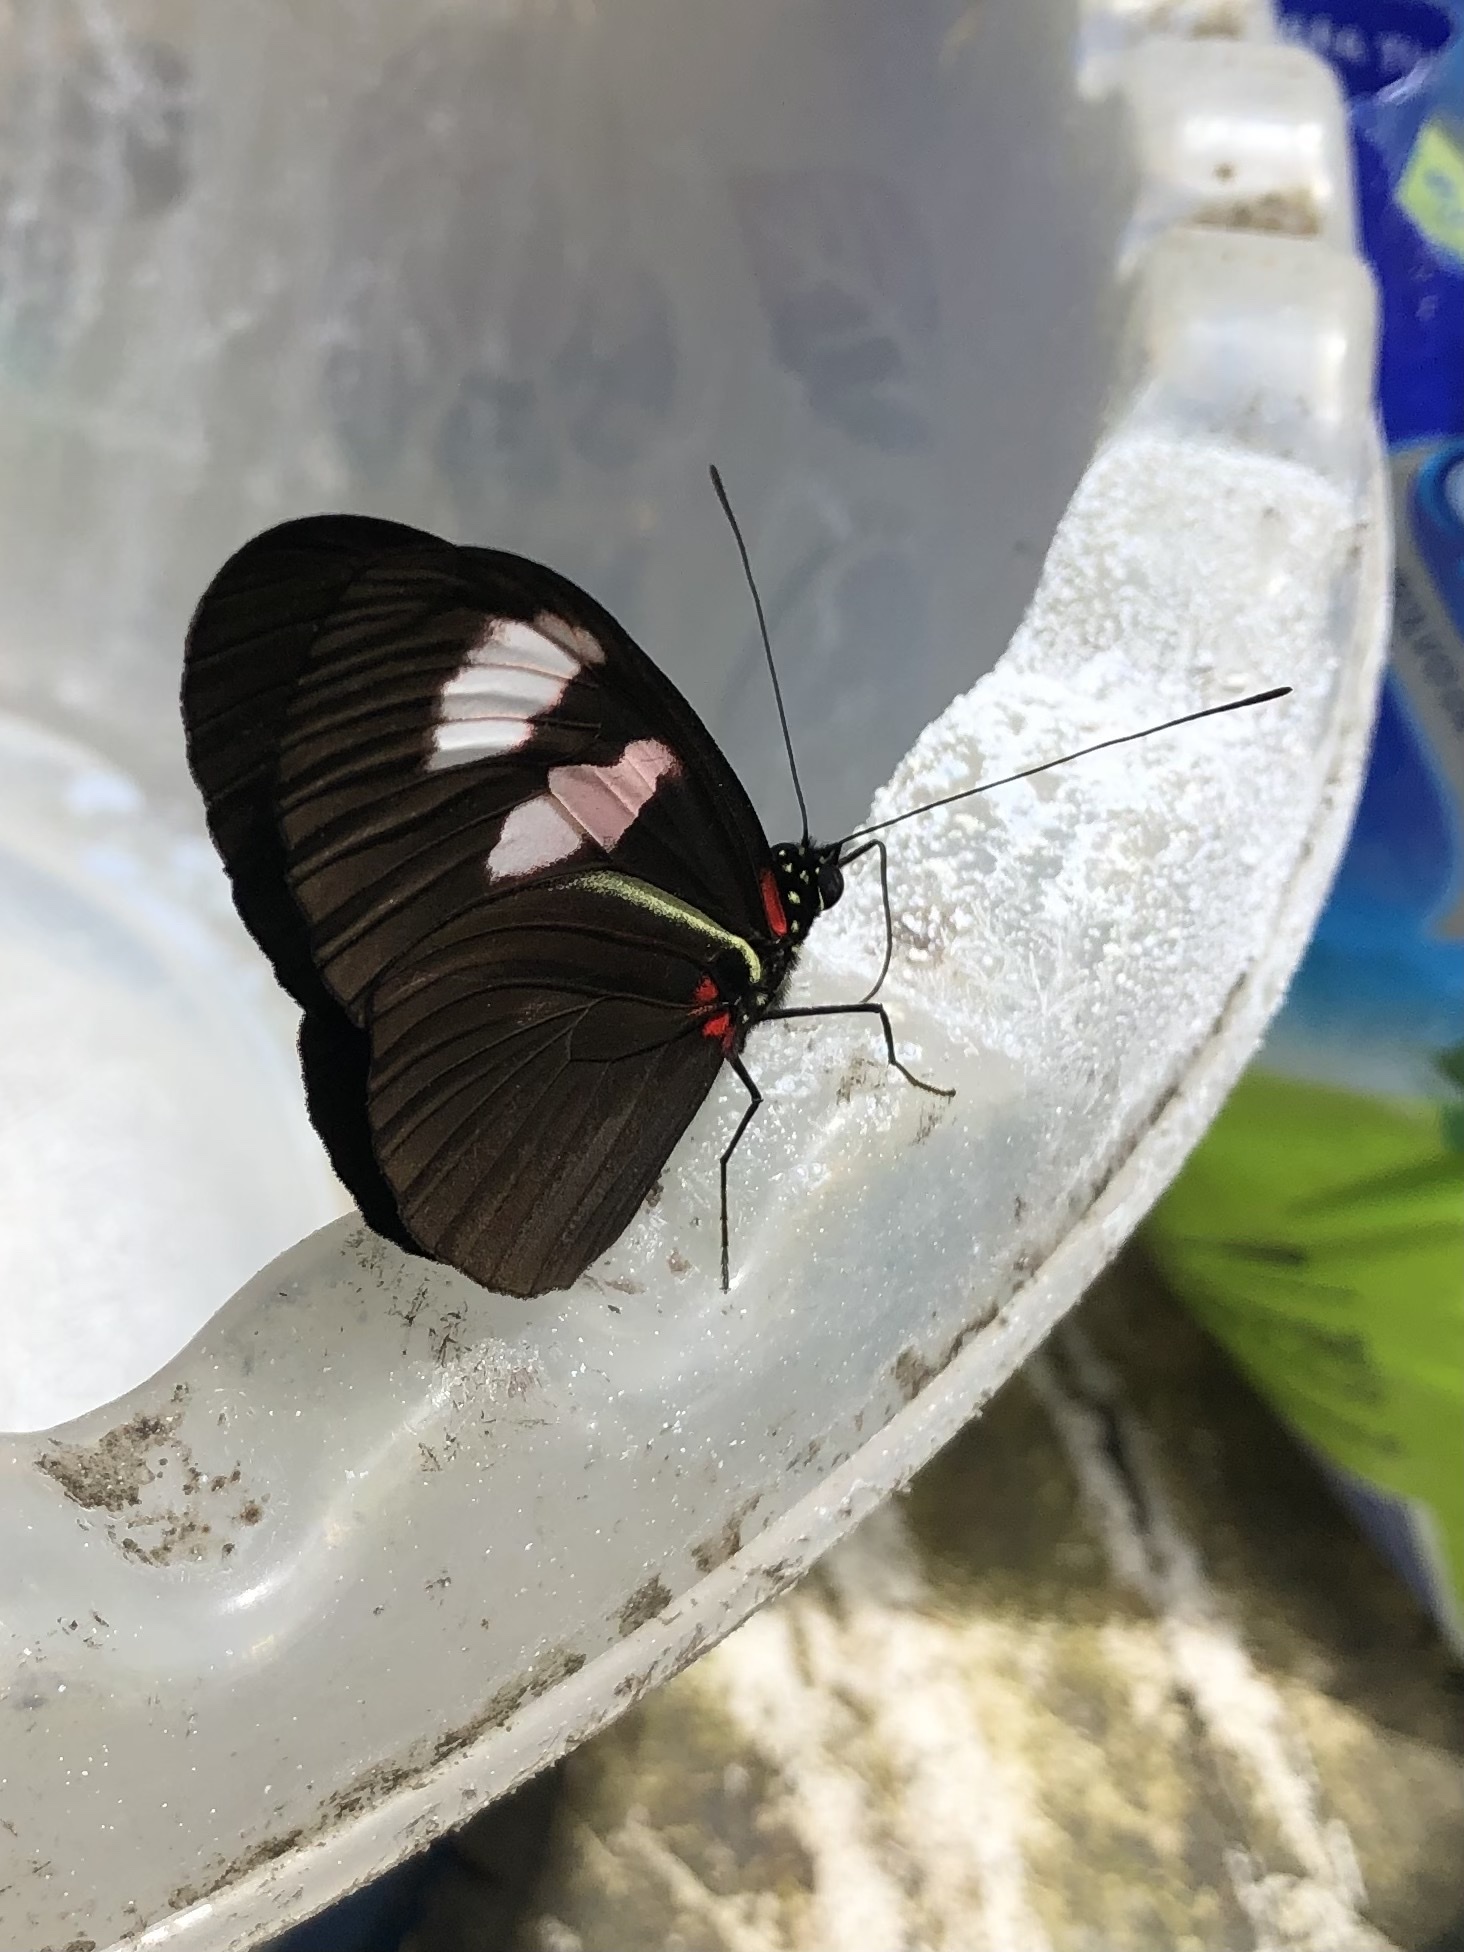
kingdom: Animalia
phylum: Arthropoda
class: Insecta
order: Lepidoptera
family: Nymphalidae
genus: Heliconius
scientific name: Heliconius melpomene
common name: Postman
